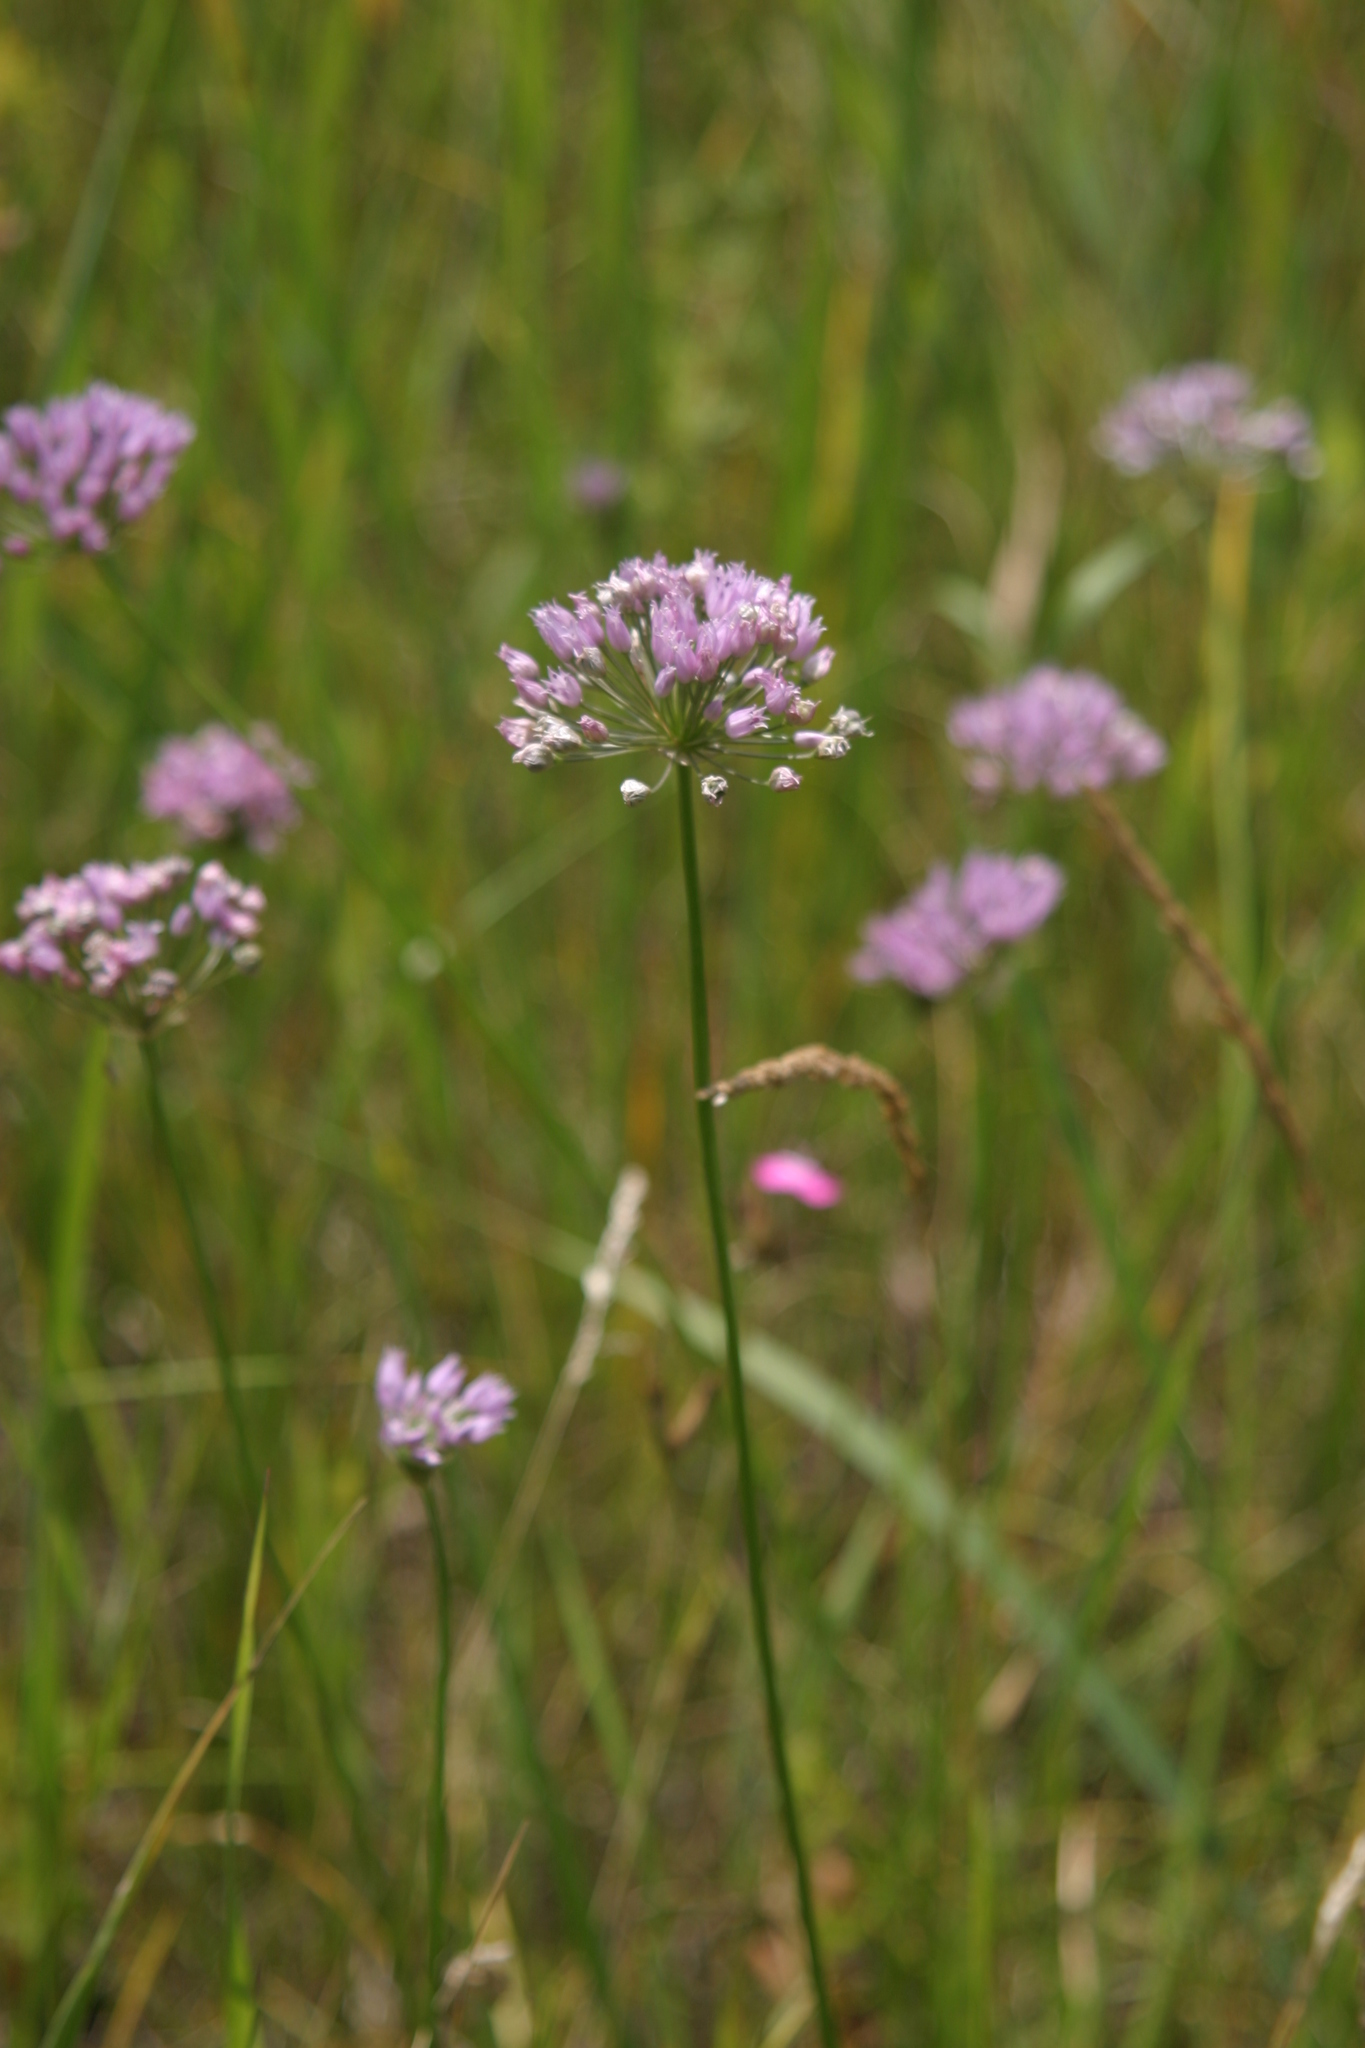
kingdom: Plantae
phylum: Tracheophyta
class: Liliopsida
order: Asparagales
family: Amaryllidaceae
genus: Allium
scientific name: Allium angulosum
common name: Mouse garlic
